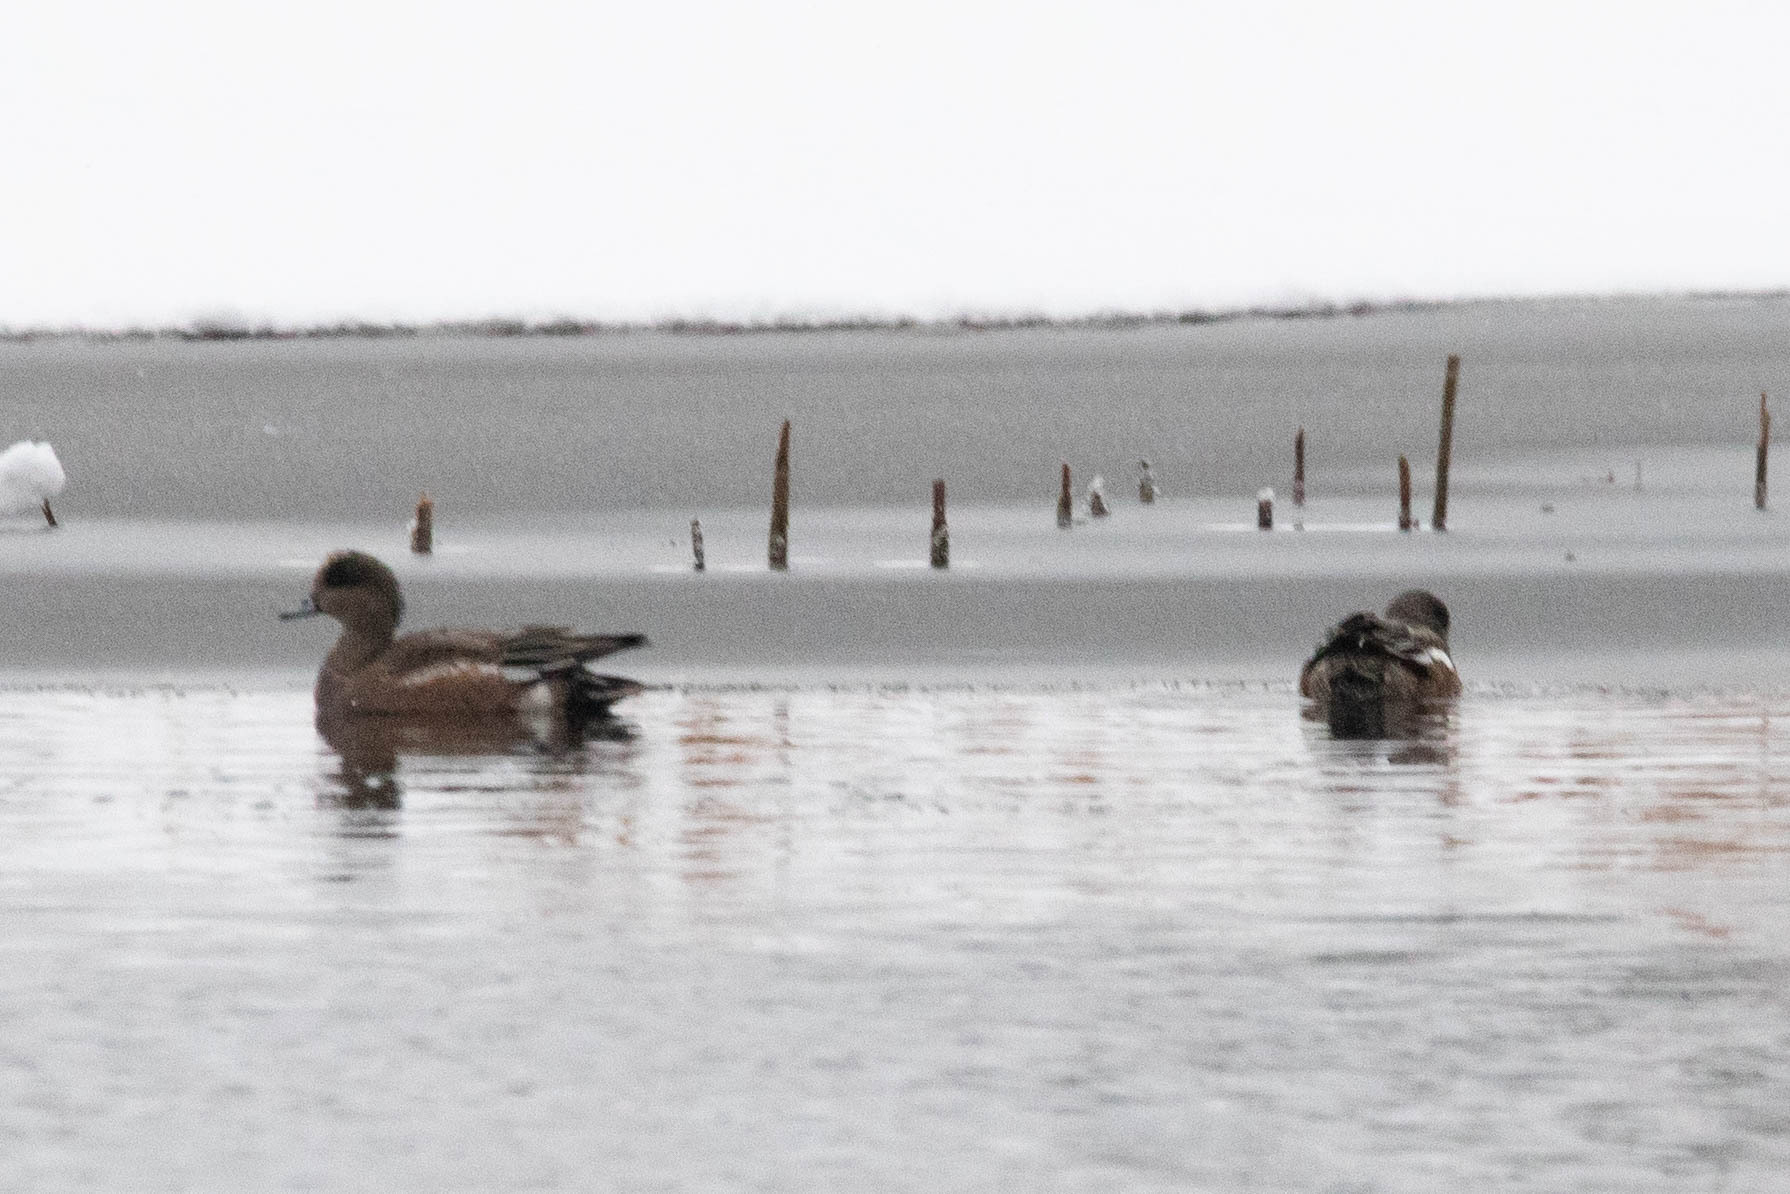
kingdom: Animalia
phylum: Chordata
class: Aves
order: Anseriformes
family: Anatidae
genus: Mareca
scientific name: Mareca americana
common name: American wigeon
